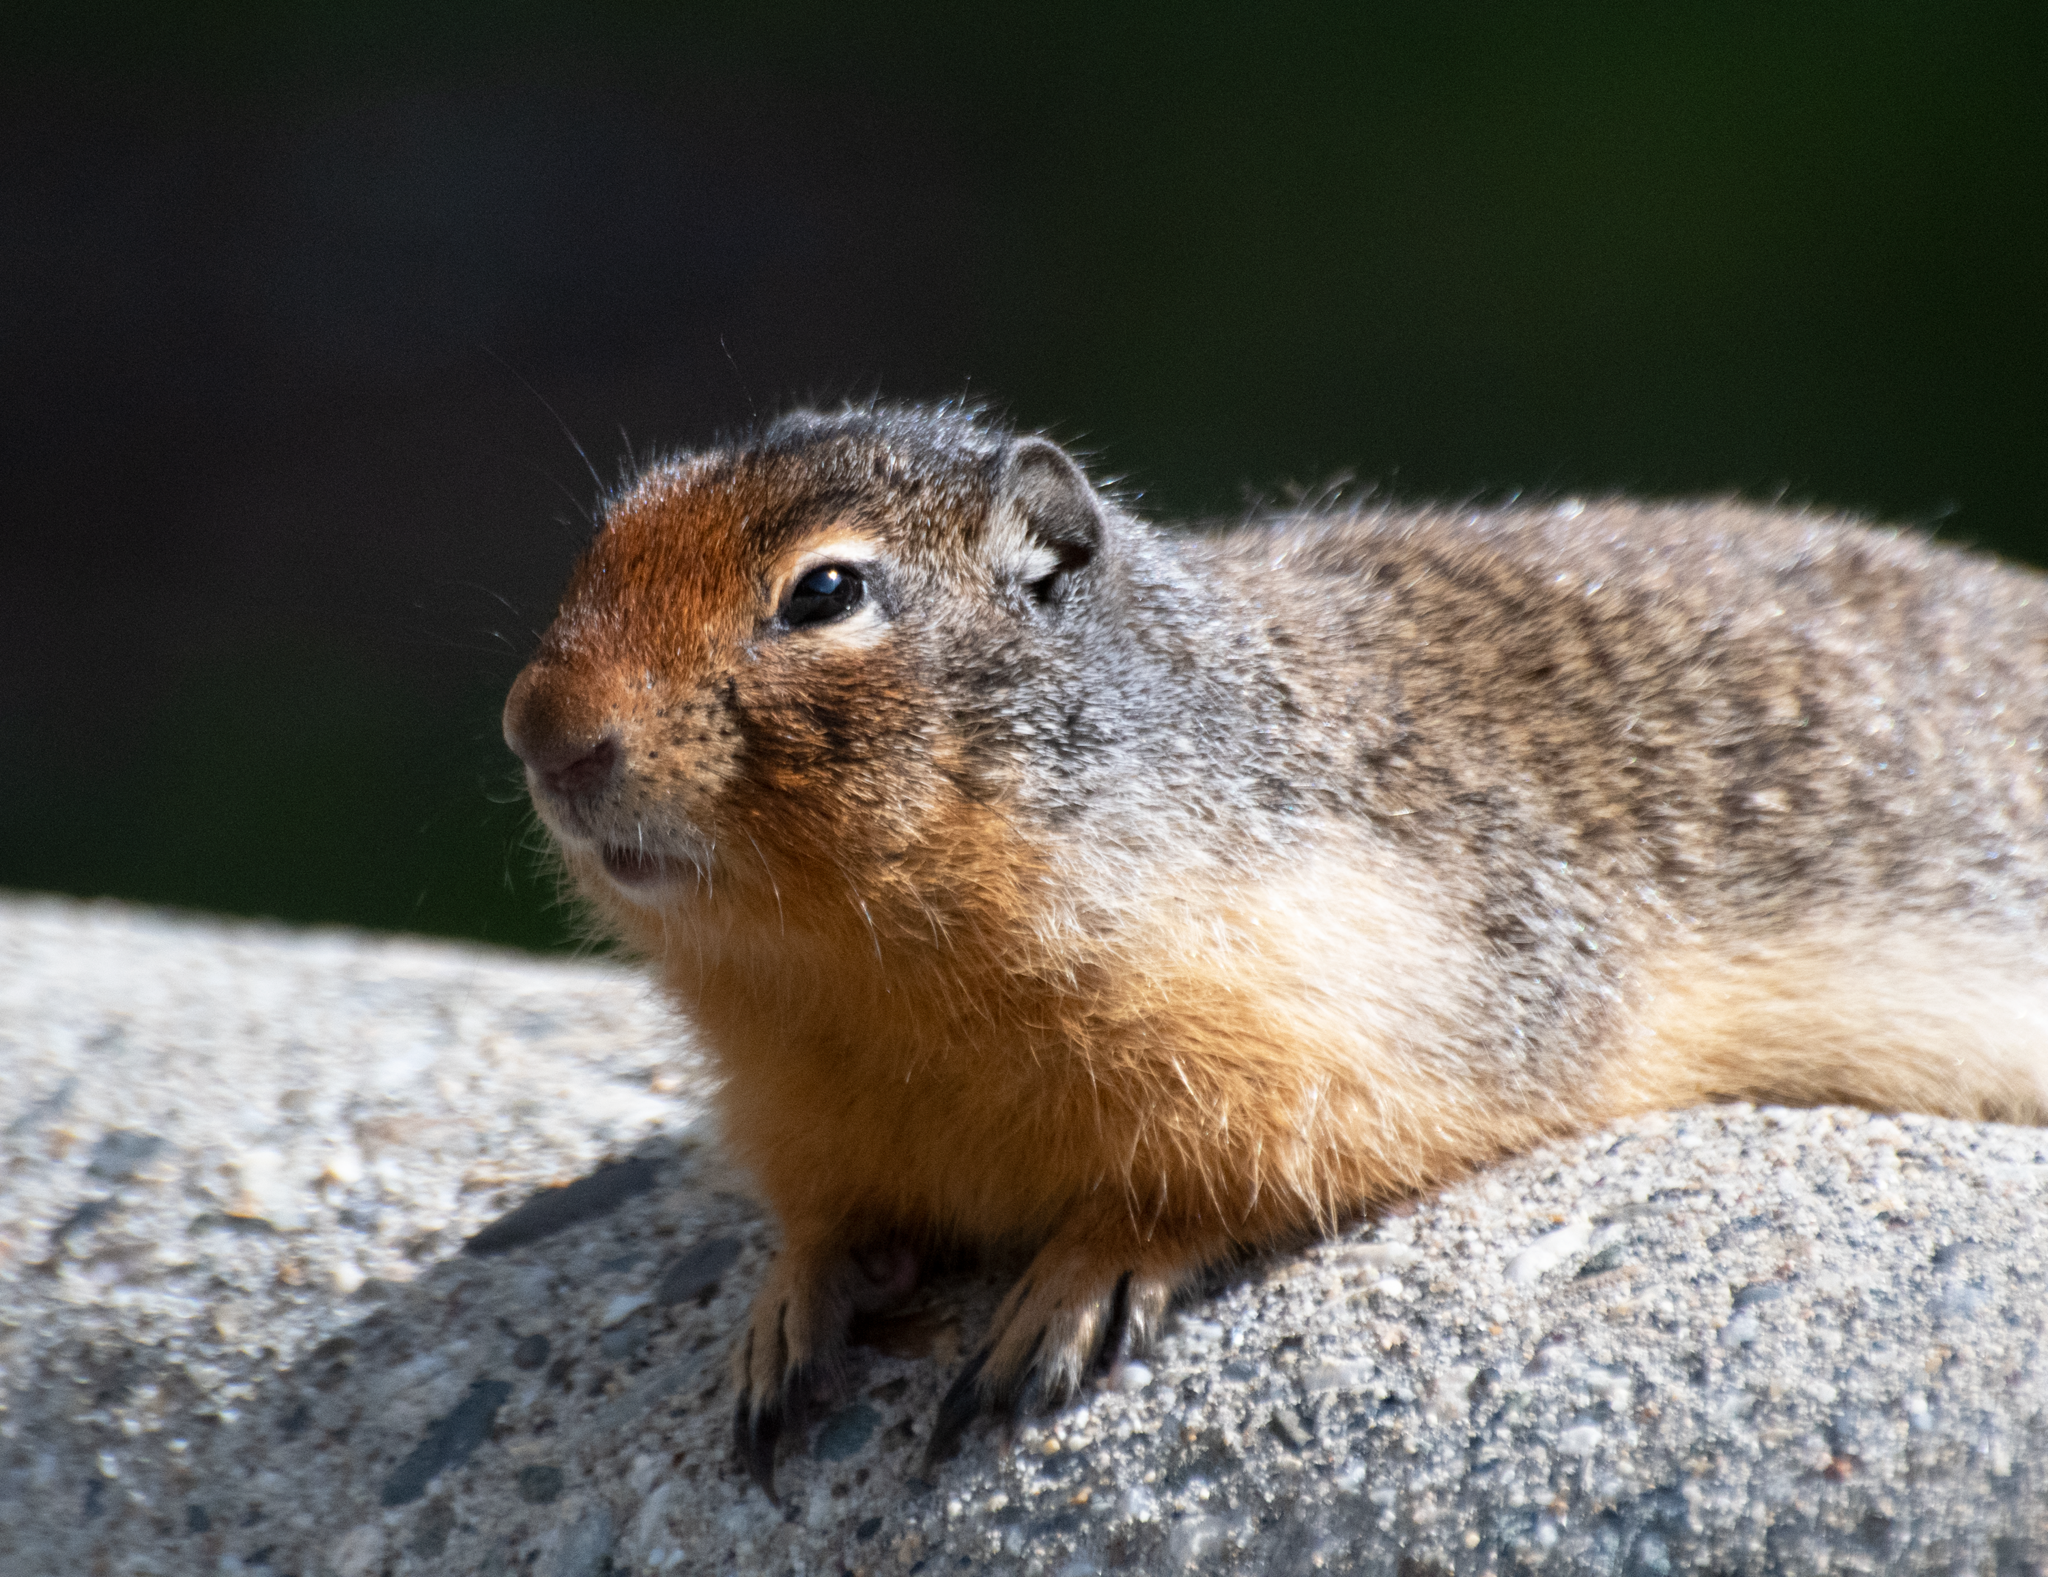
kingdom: Animalia
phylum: Chordata
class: Mammalia
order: Rodentia
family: Sciuridae
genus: Urocitellus
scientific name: Urocitellus columbianus
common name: Columbian ground squirrel
